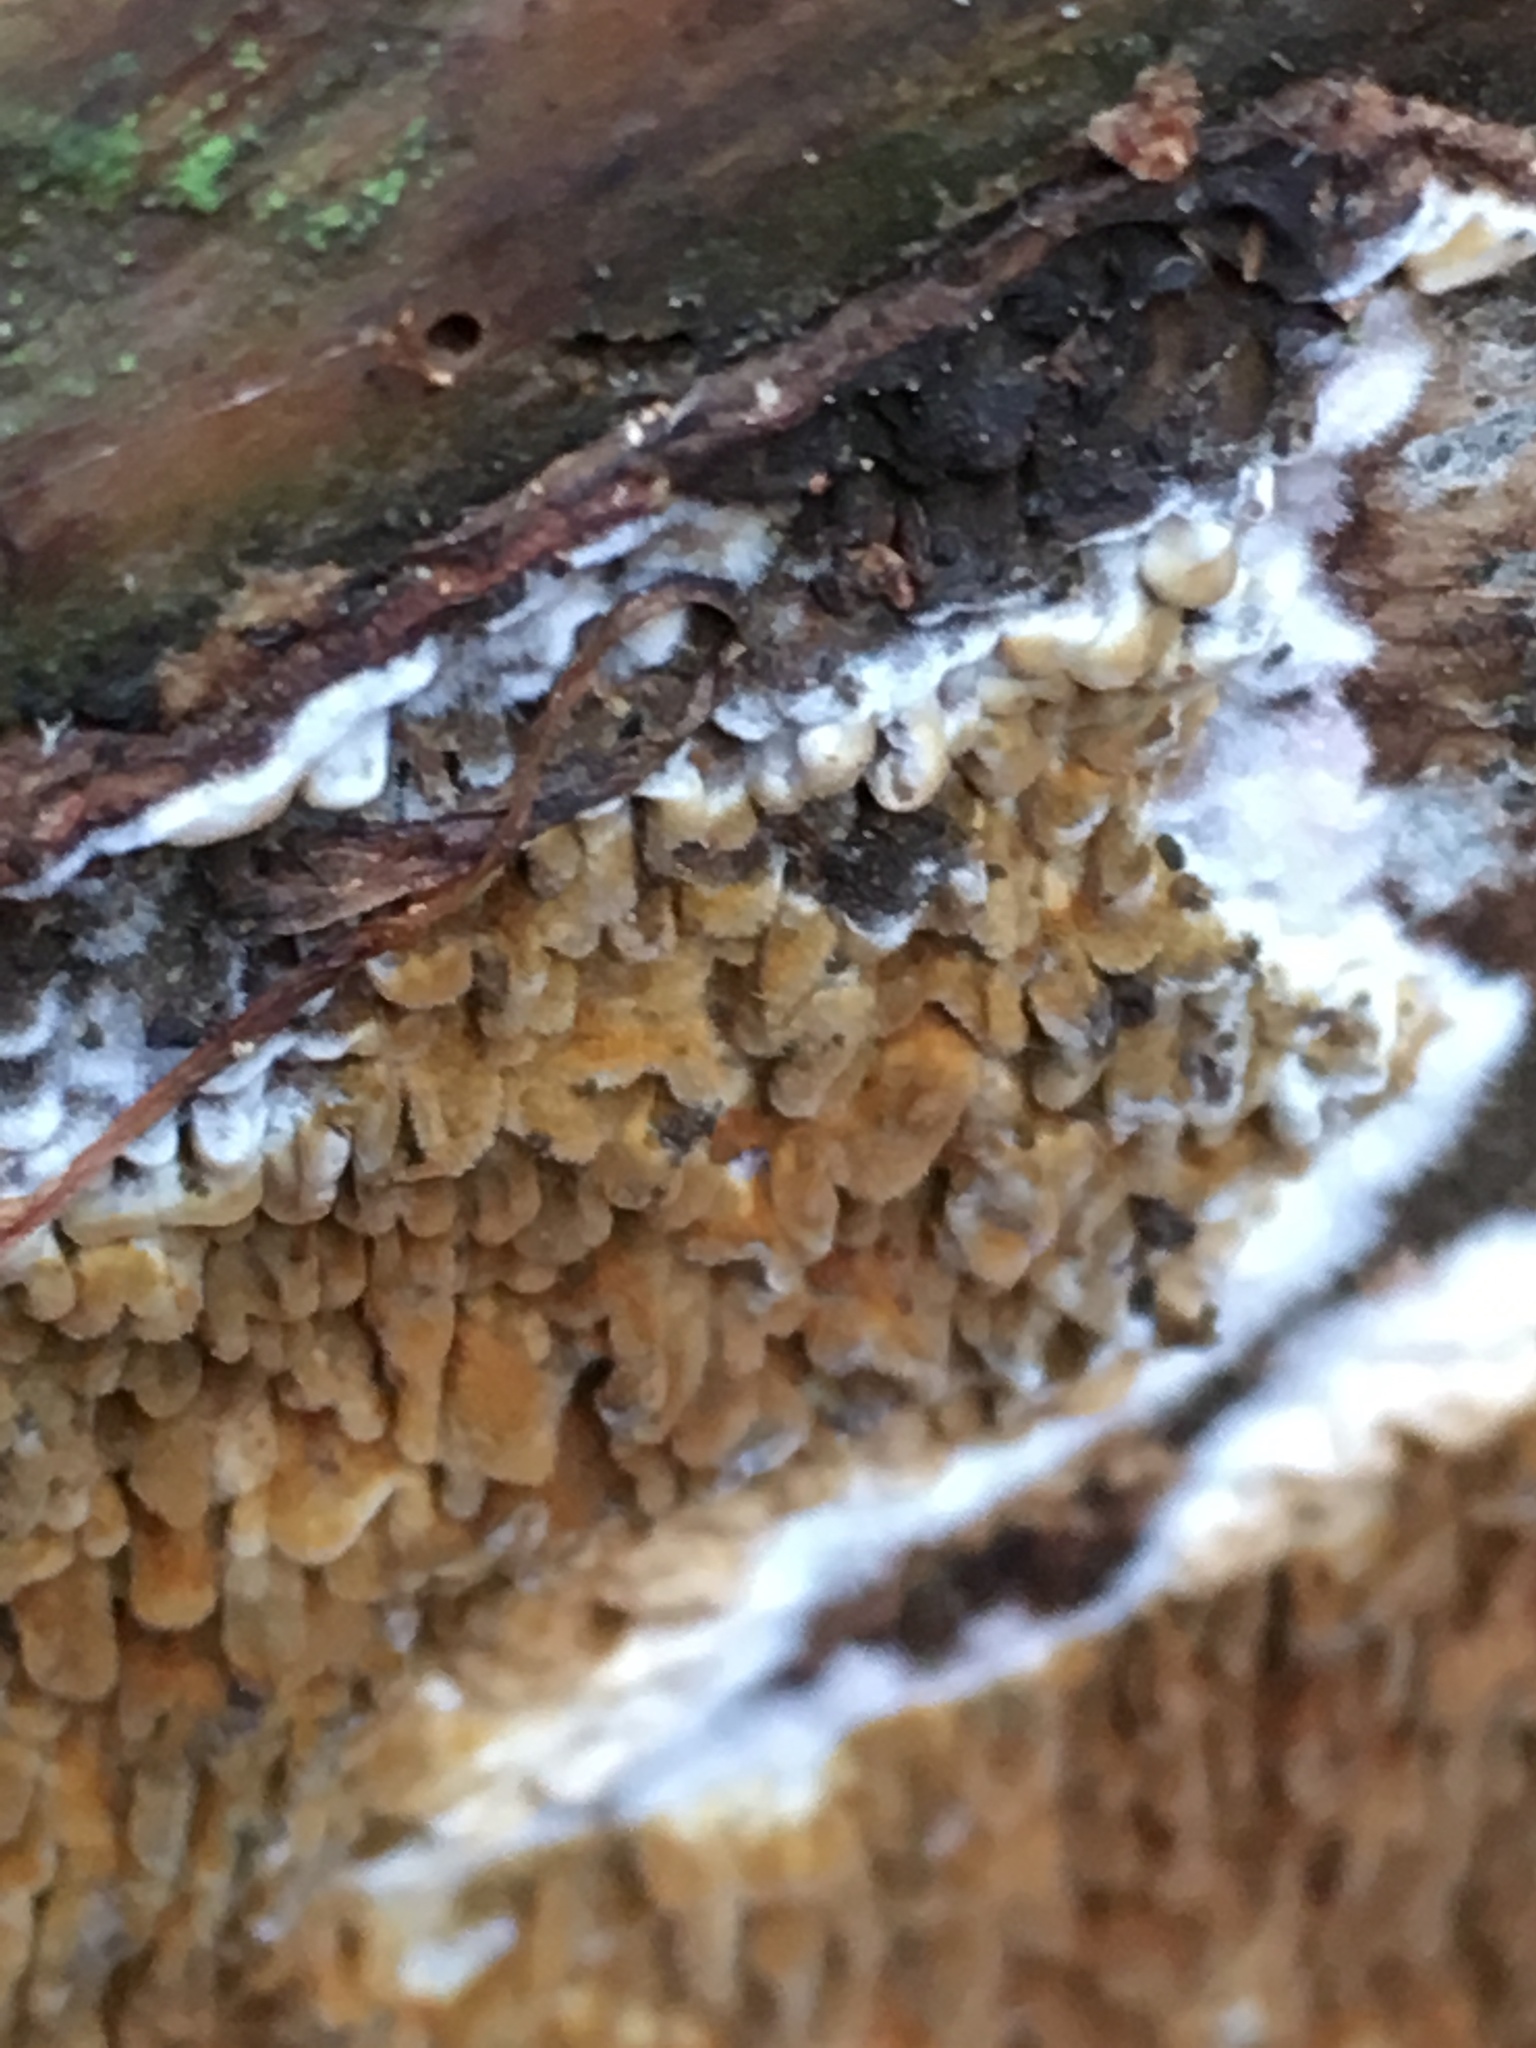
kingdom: Fungi
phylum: Basidiomycota
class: Agaricomycetes
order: Boletales
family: Serpulaceae
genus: Serpula
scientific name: Serpula himantioides
